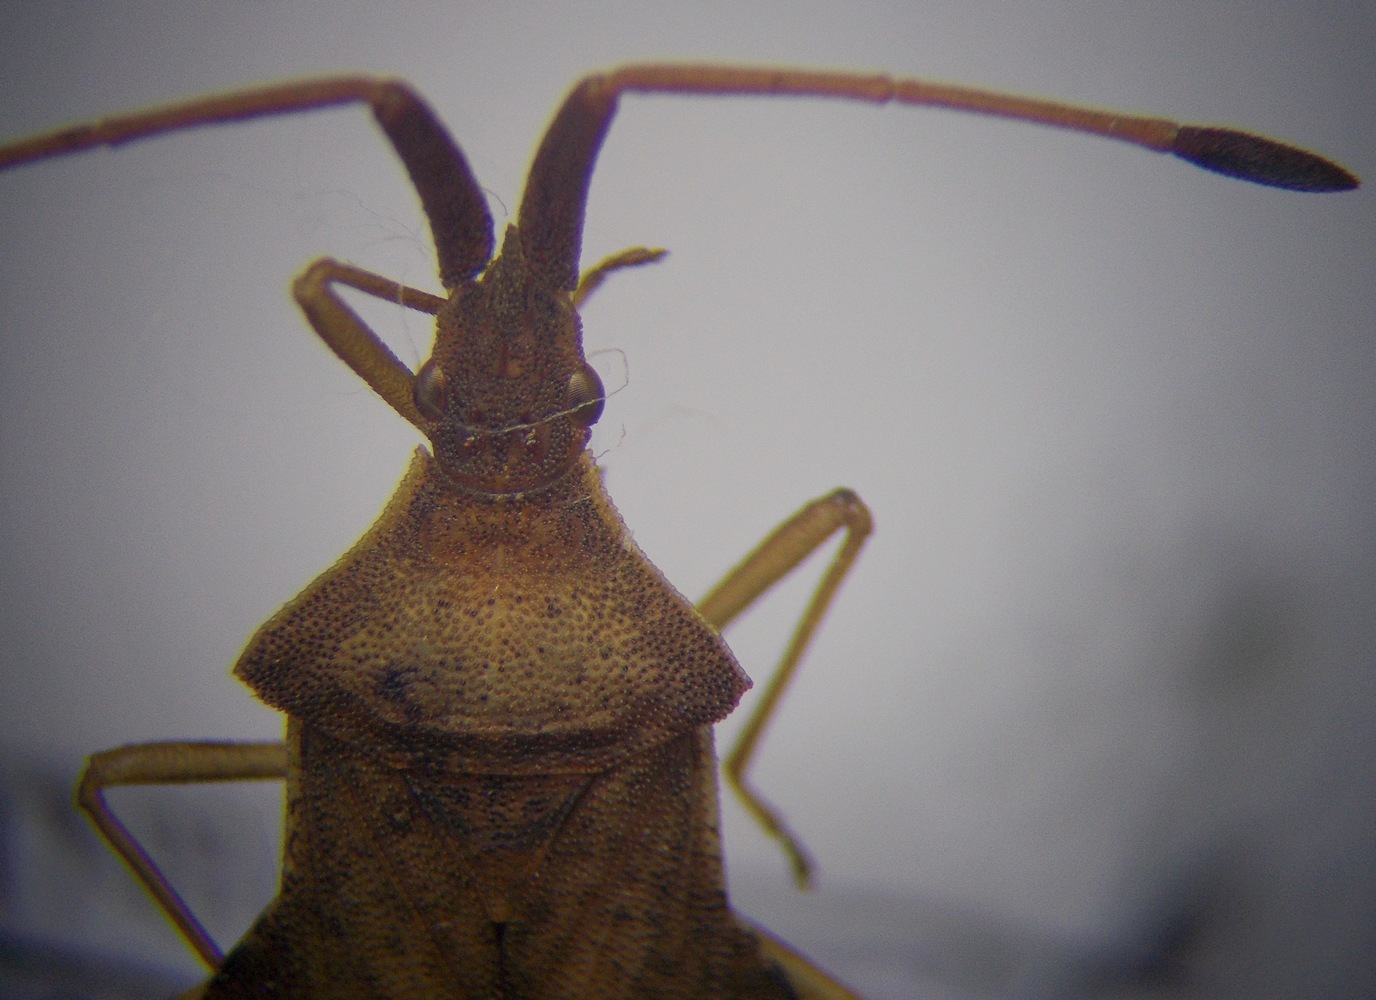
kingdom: Animalia
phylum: Arthropoda
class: Insecta
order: Hemiptera
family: Coreidae
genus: Syromastus
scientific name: Syromastus rhombeus
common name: Rhombic leatherbug
